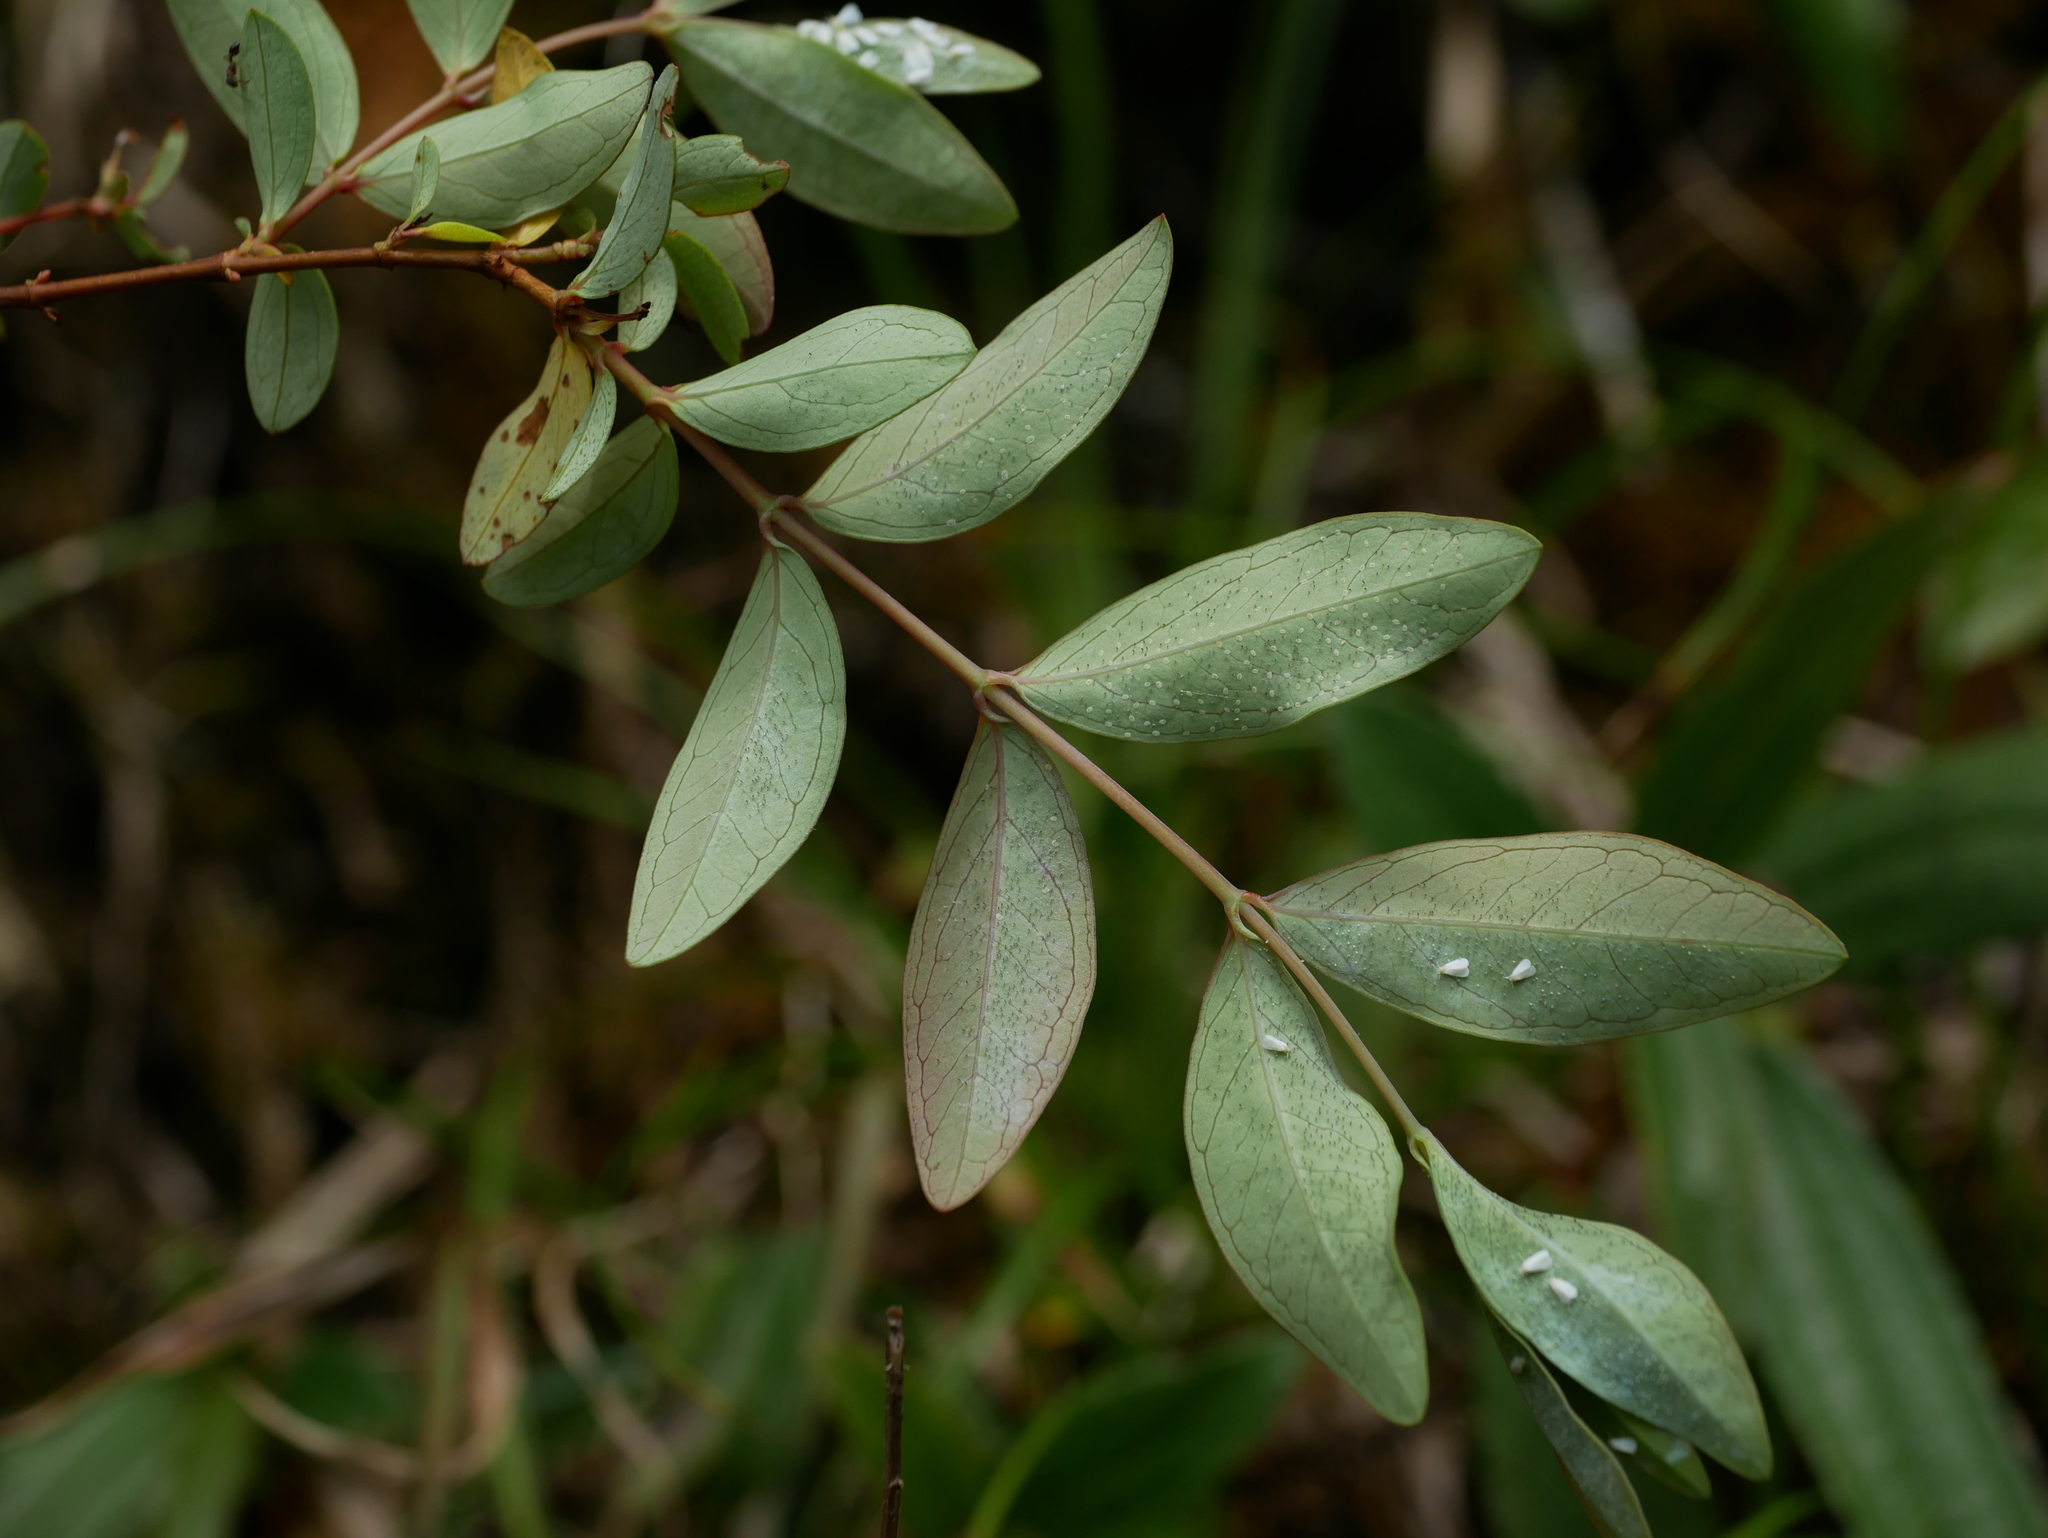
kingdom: Plantae
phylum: Tracheophyta
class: Magnoliopsida
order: Malpighiales
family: Hypericaceae
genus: Hypericum
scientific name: Hypericum geminiflorum
